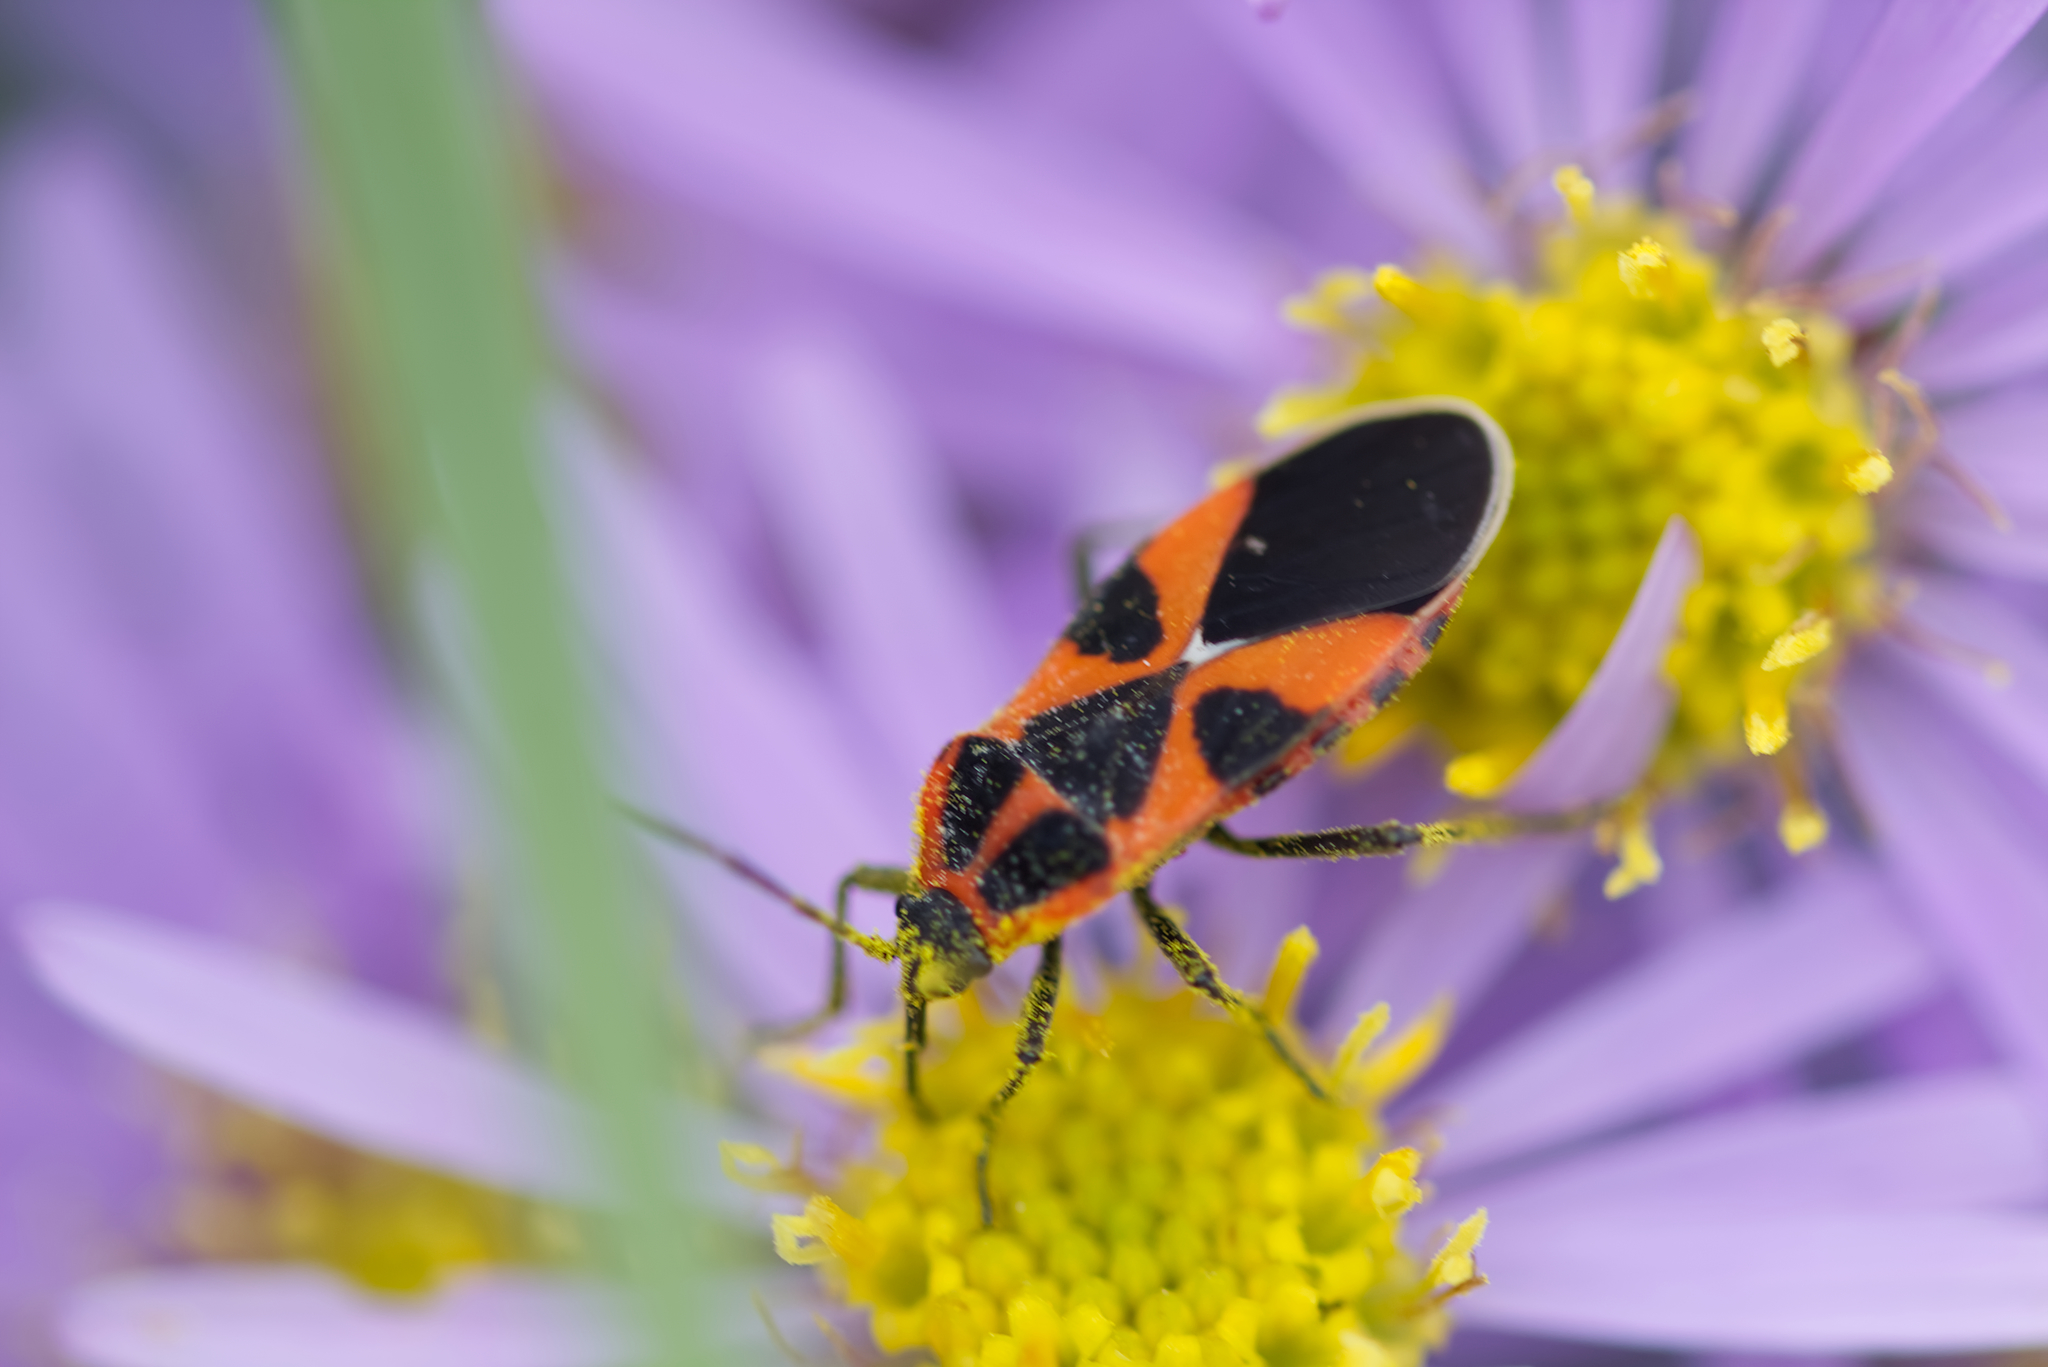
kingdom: Animalia
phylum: Arthropoda
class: Insecta
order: Hemiptera
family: Lygaeidae
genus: Tropidothorax
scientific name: Tropidothorax leucopterus
